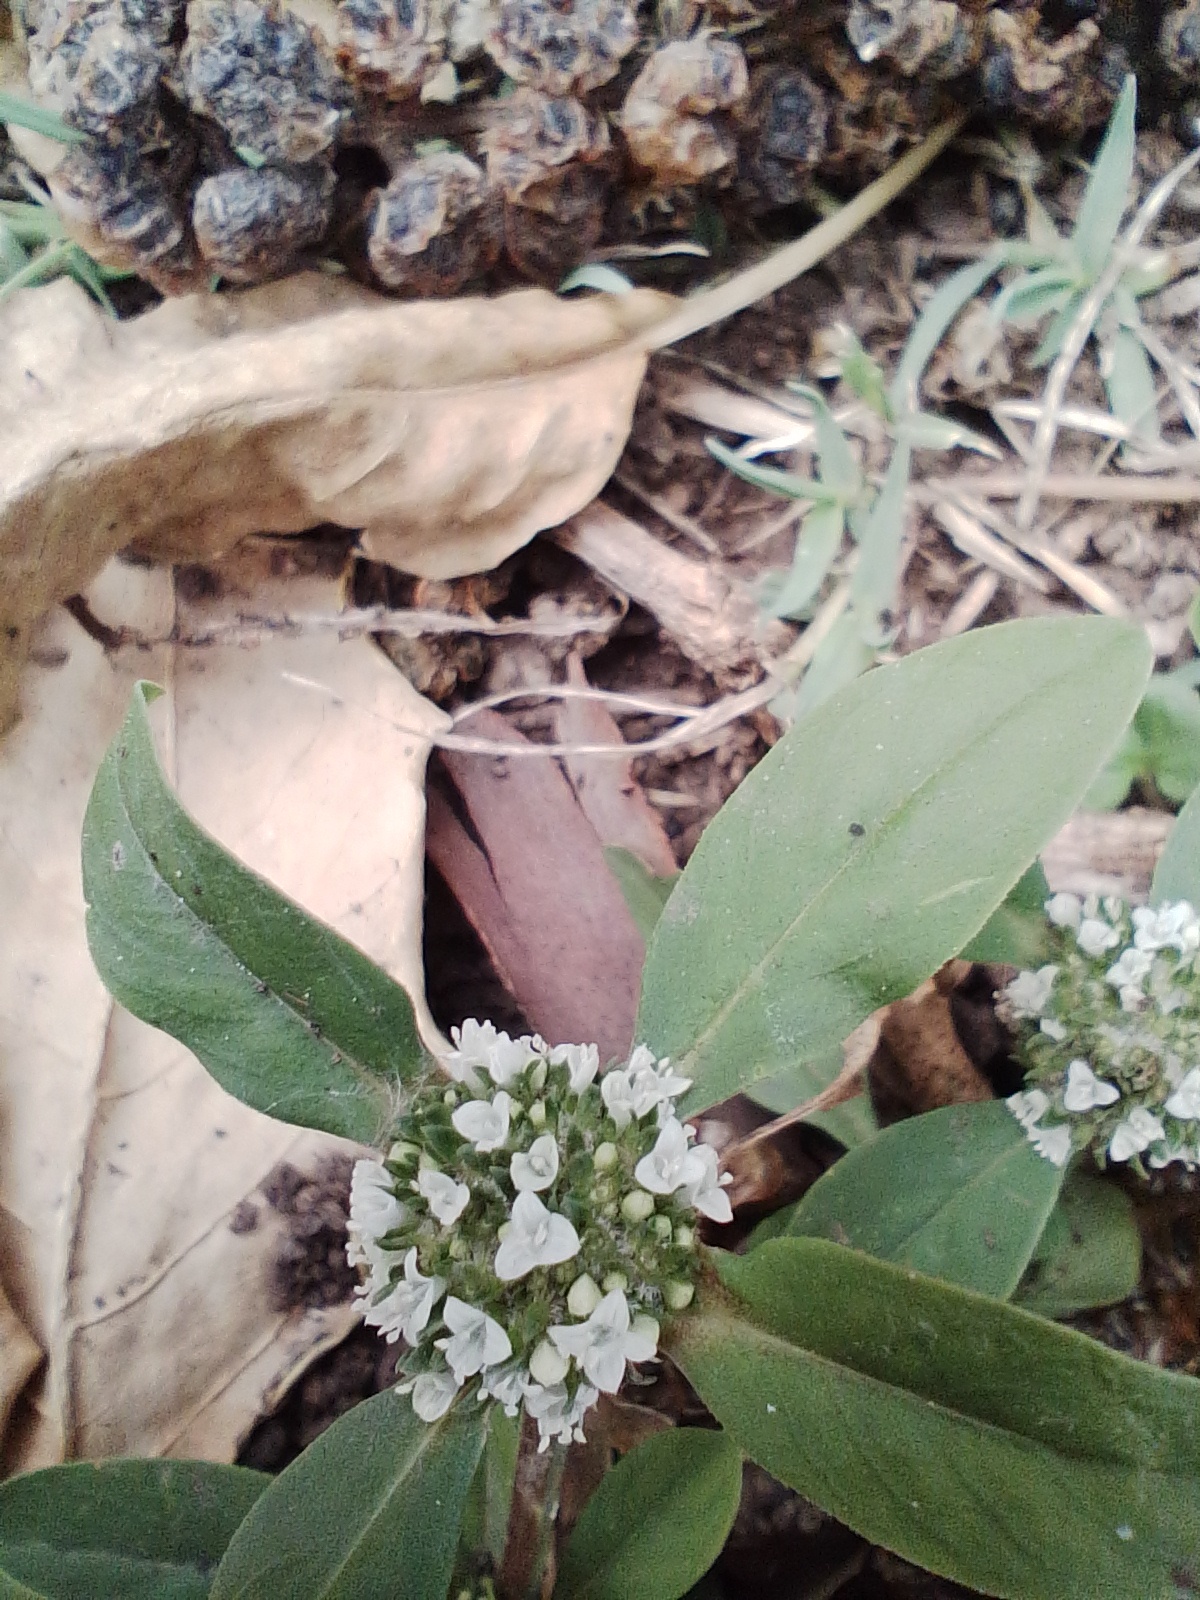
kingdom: Plantae
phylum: Tracheophyta
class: Magnoliopsida
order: Gentianales
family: Rubiaceae
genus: Spermacoce
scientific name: Spermacoce dasycephala
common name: False buttonweed
